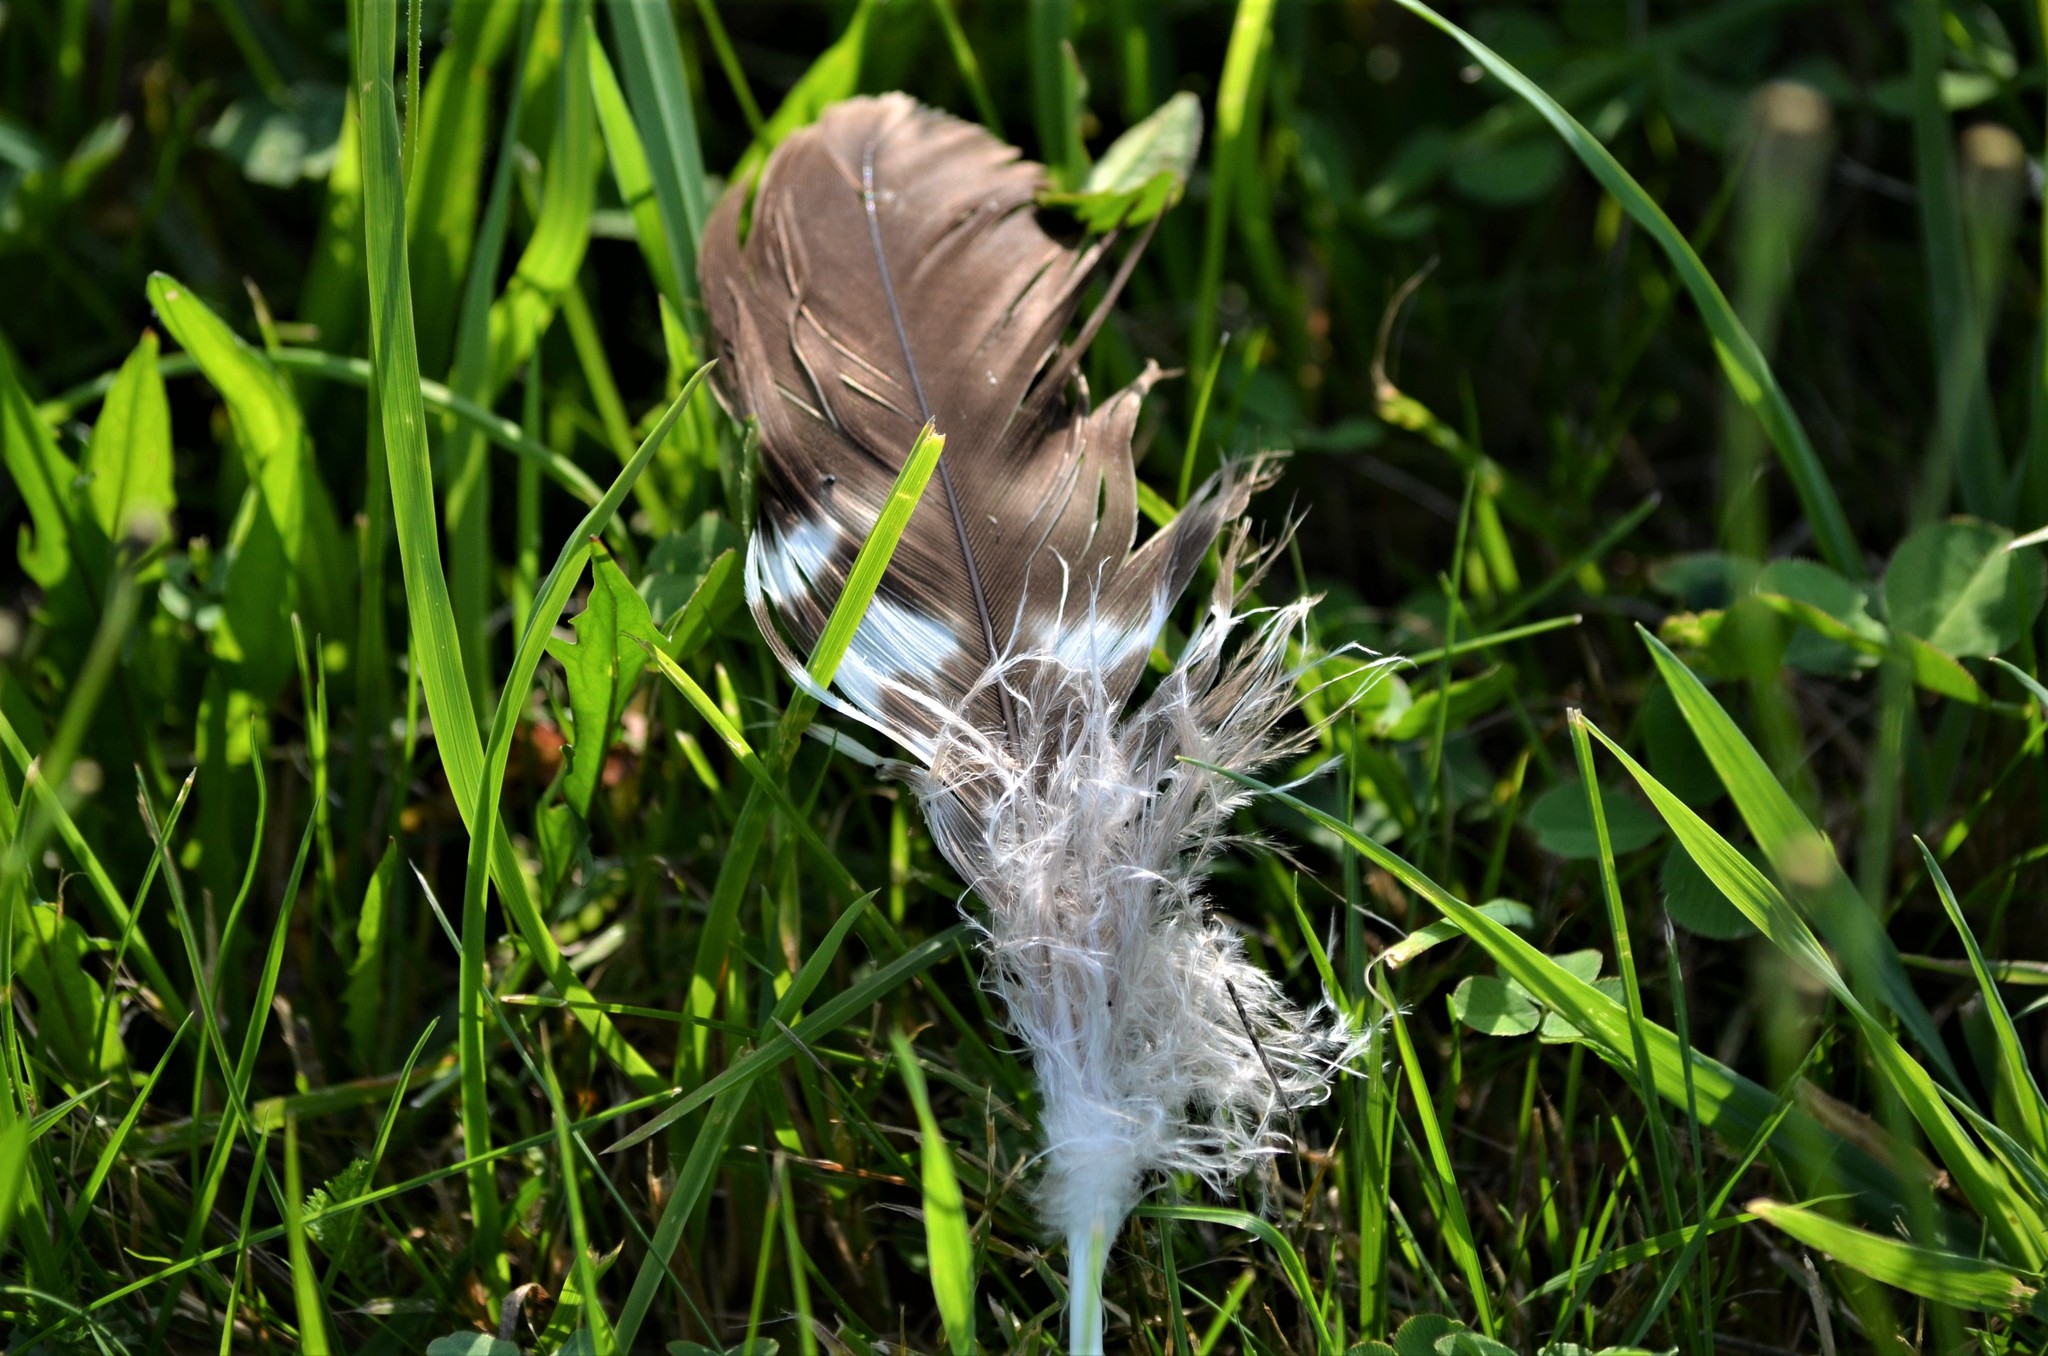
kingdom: Animalia
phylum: Chordata
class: Aves
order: Accipitriformes
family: Accipitridae
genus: Buteo
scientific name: Buteo buteo
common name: Common buzzard
